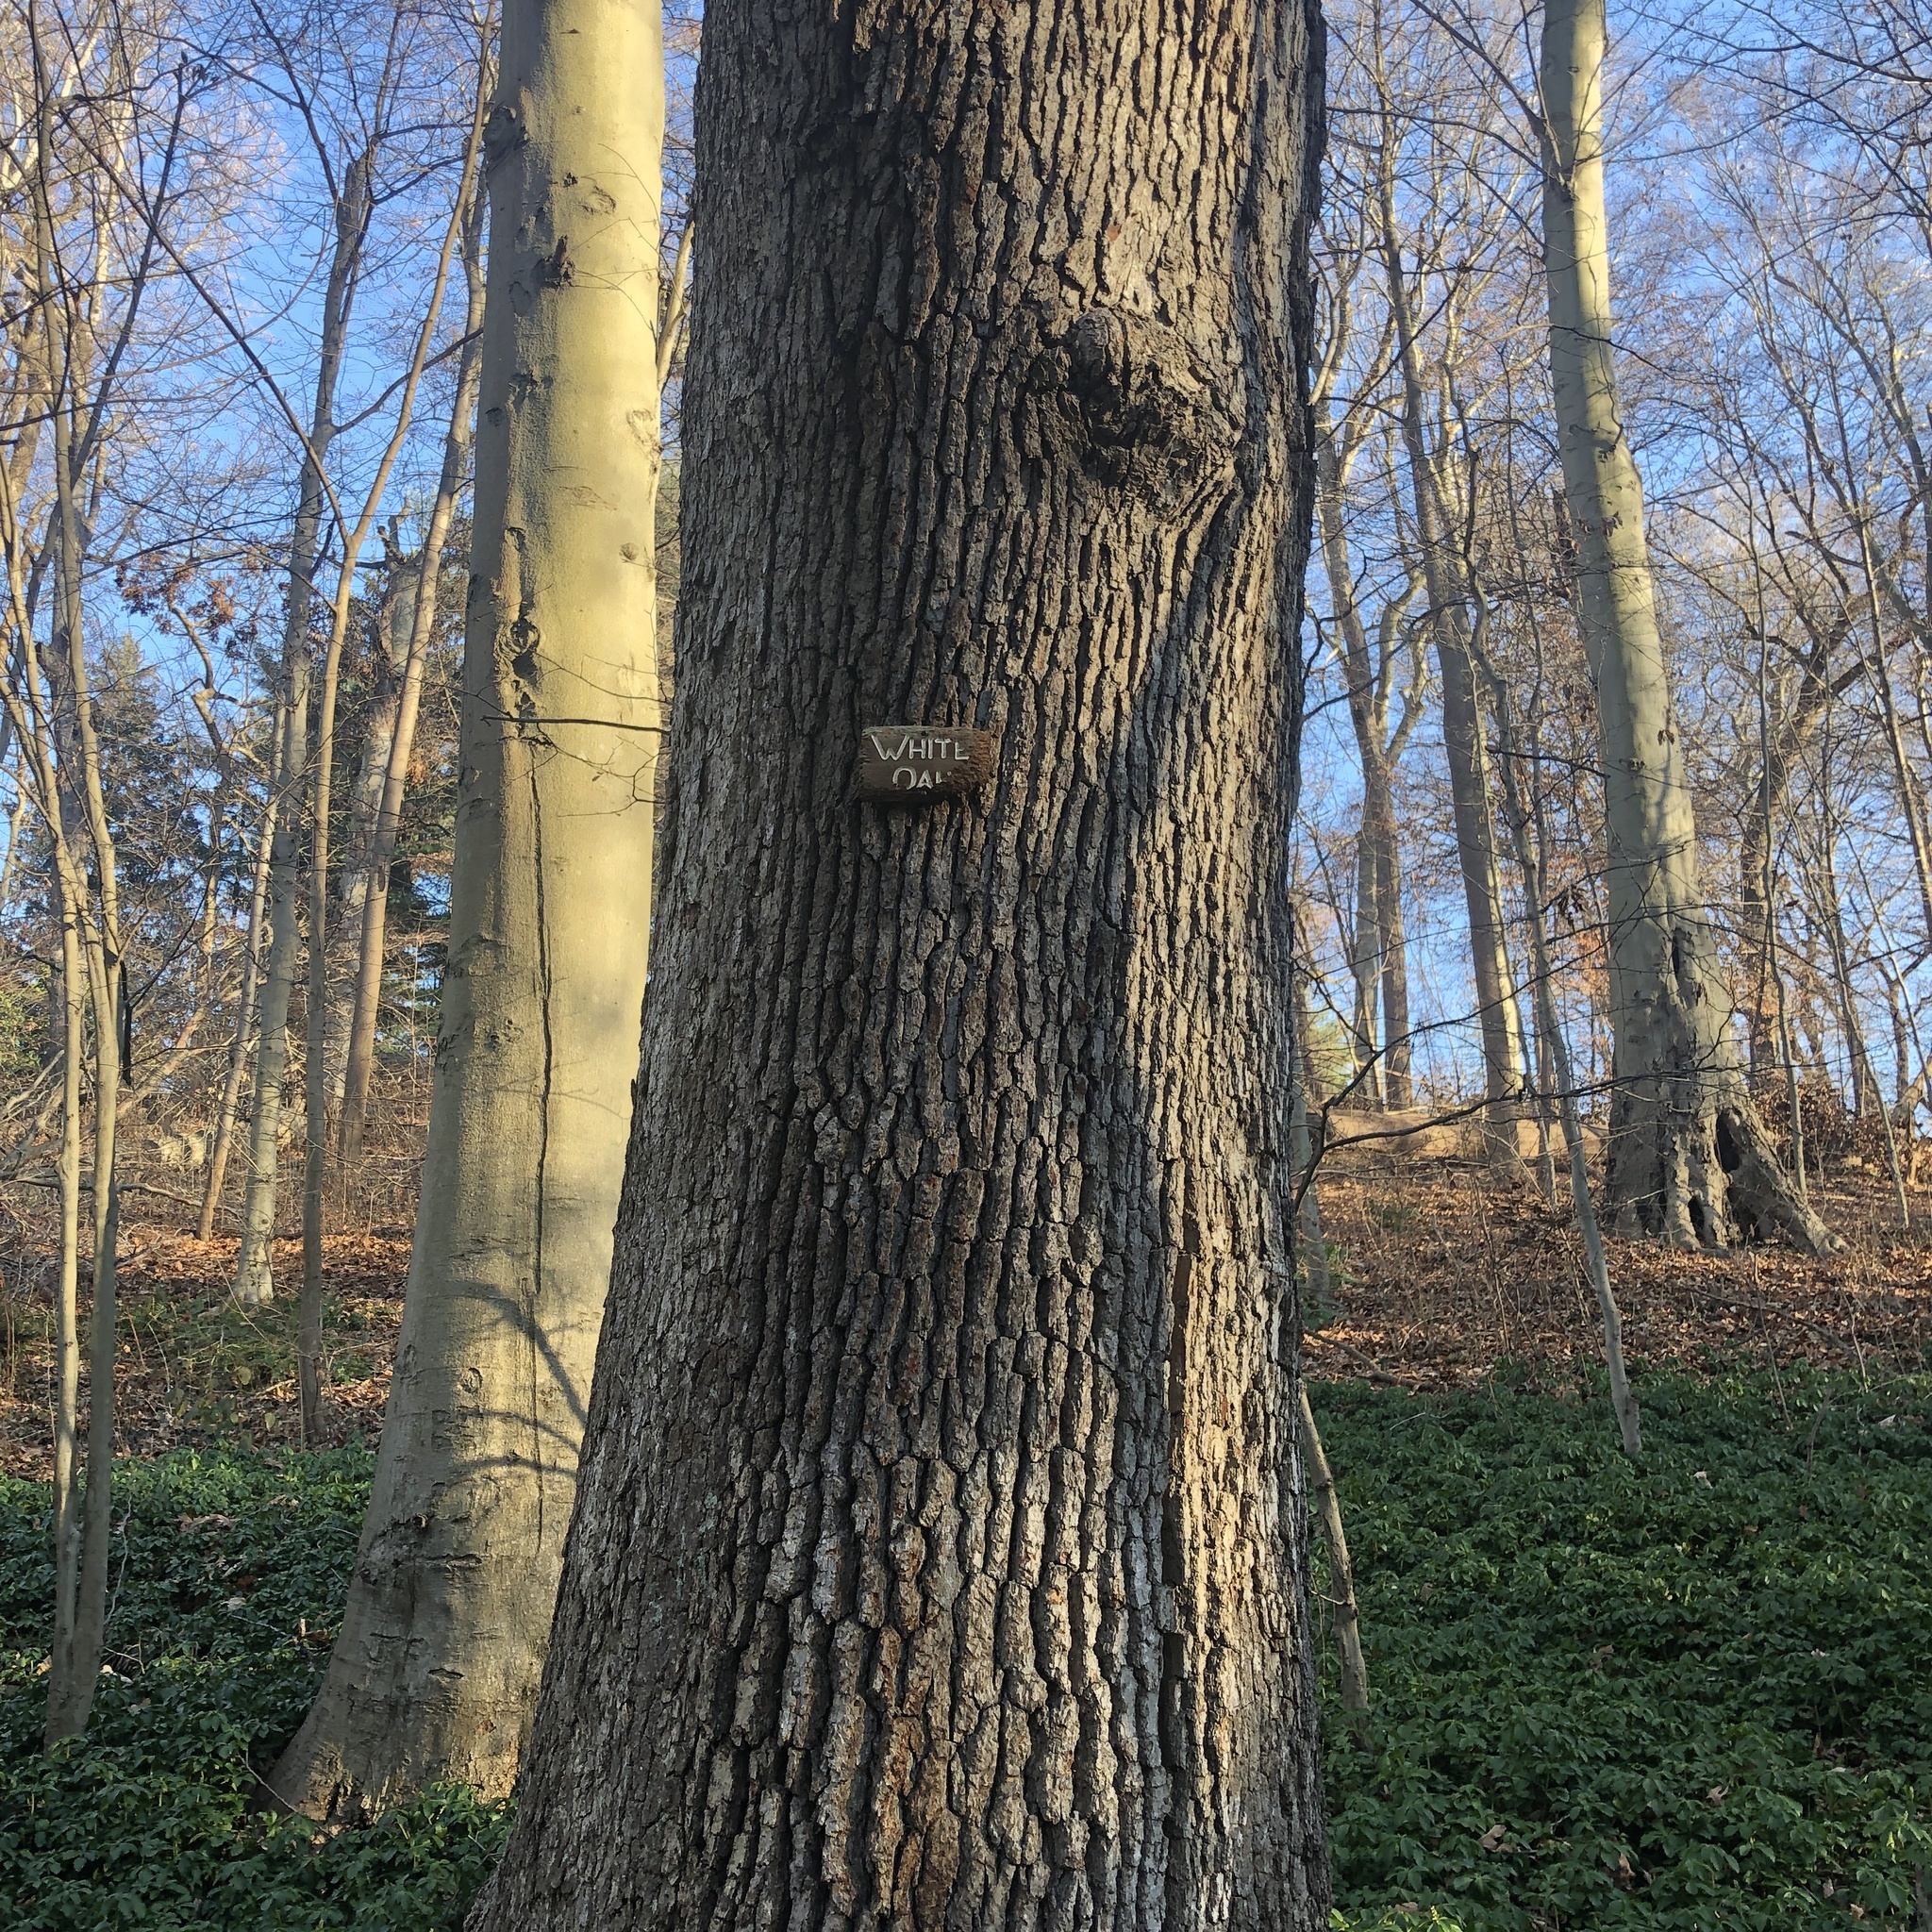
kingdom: Plantae
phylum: Tracheophyta
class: Magnoliopsida
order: Fagales
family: Fagaceae
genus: Quercus
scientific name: Quercus alba
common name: White oak
